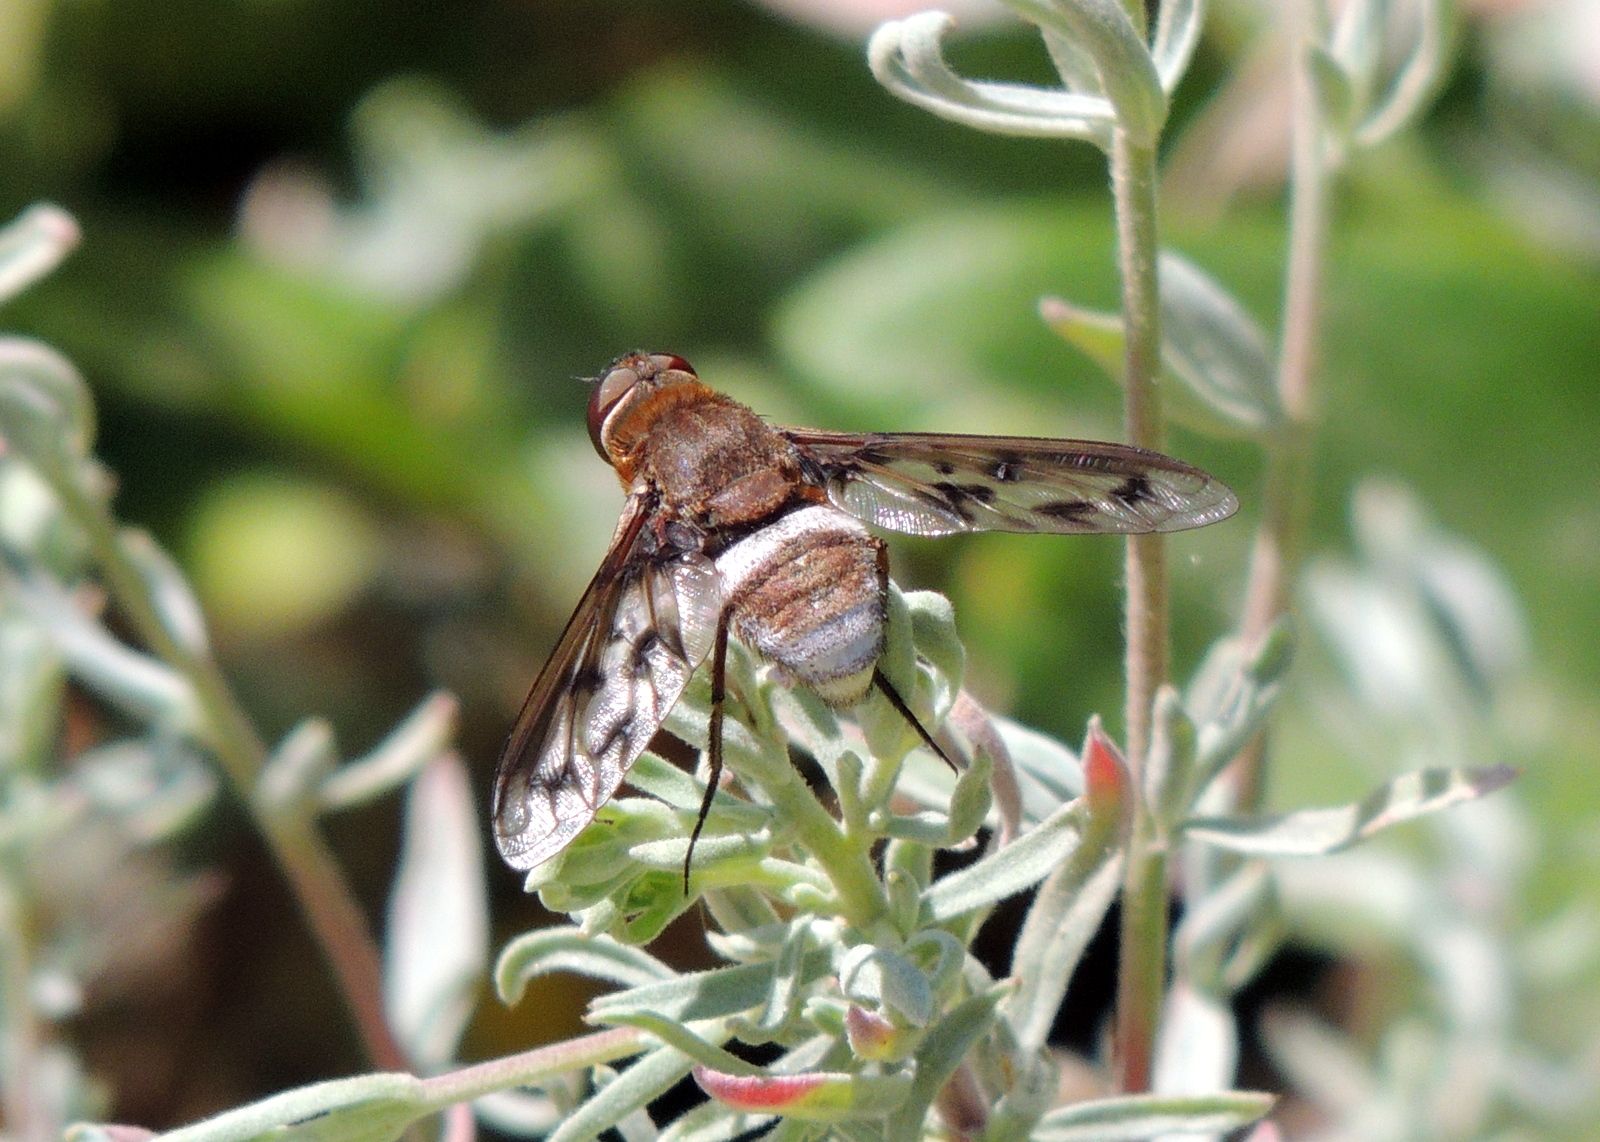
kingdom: Animalia
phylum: Arthropoda
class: Insecta
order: Diptera
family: Bombyliidae
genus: Nyia
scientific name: Nyia gazophylax
